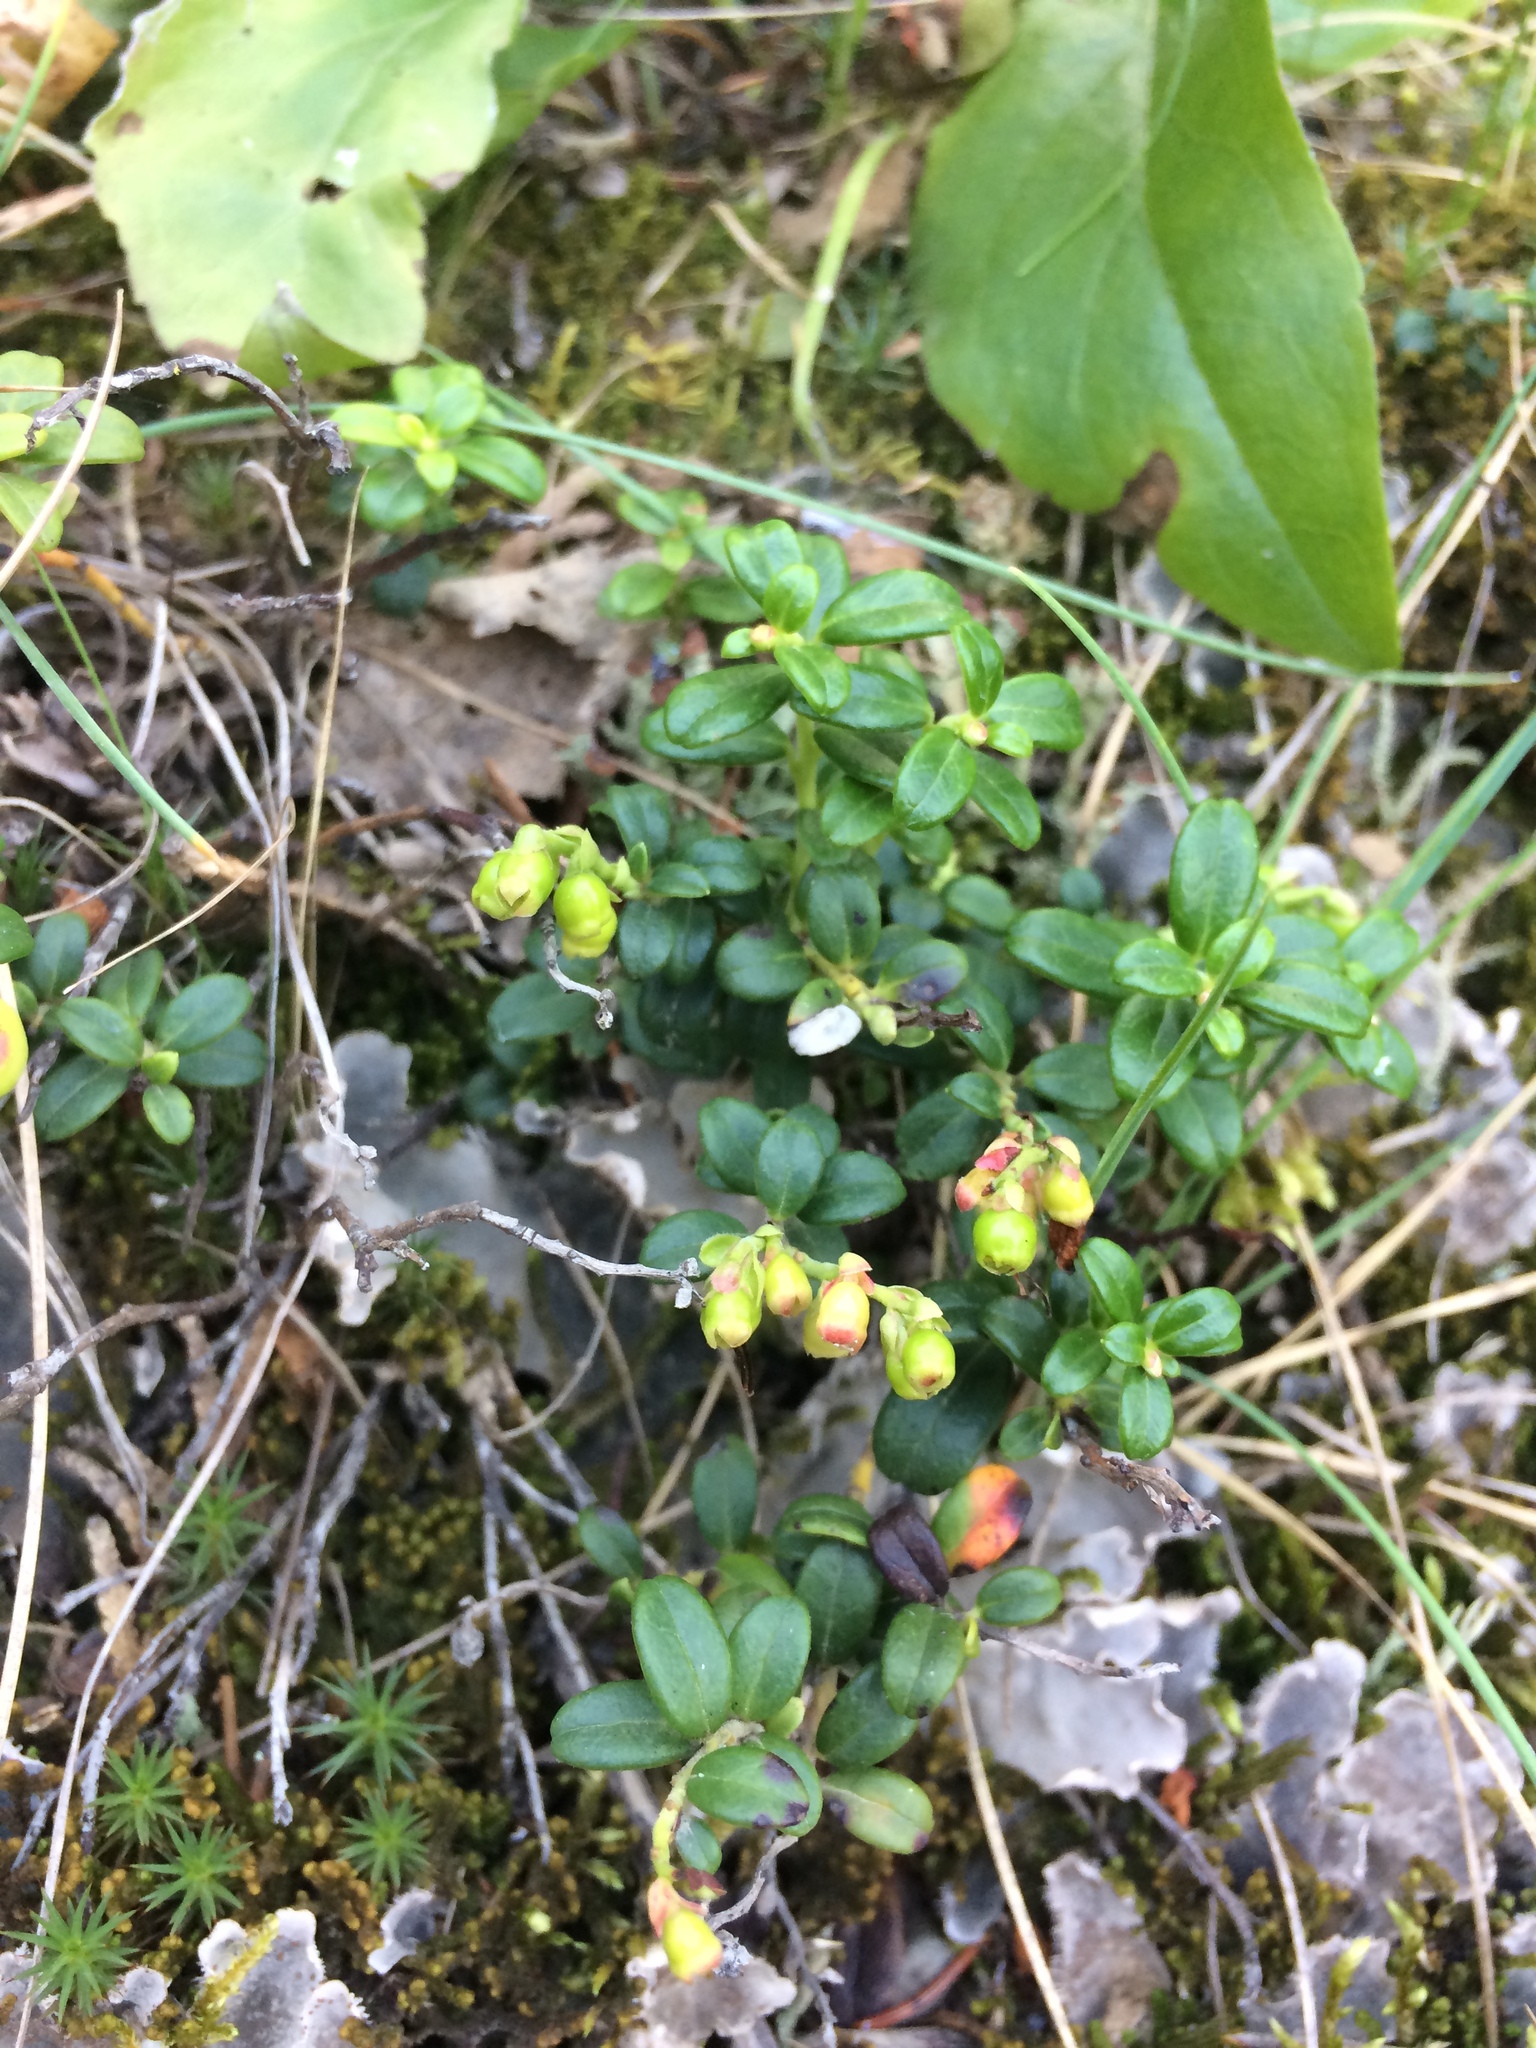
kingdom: Plantae
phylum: Tracheophyta
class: Magnoliopsida
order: Ericales
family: Ericaceae
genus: Vaccinium
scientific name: Vaccinium vitis-idaea
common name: Cowberry
